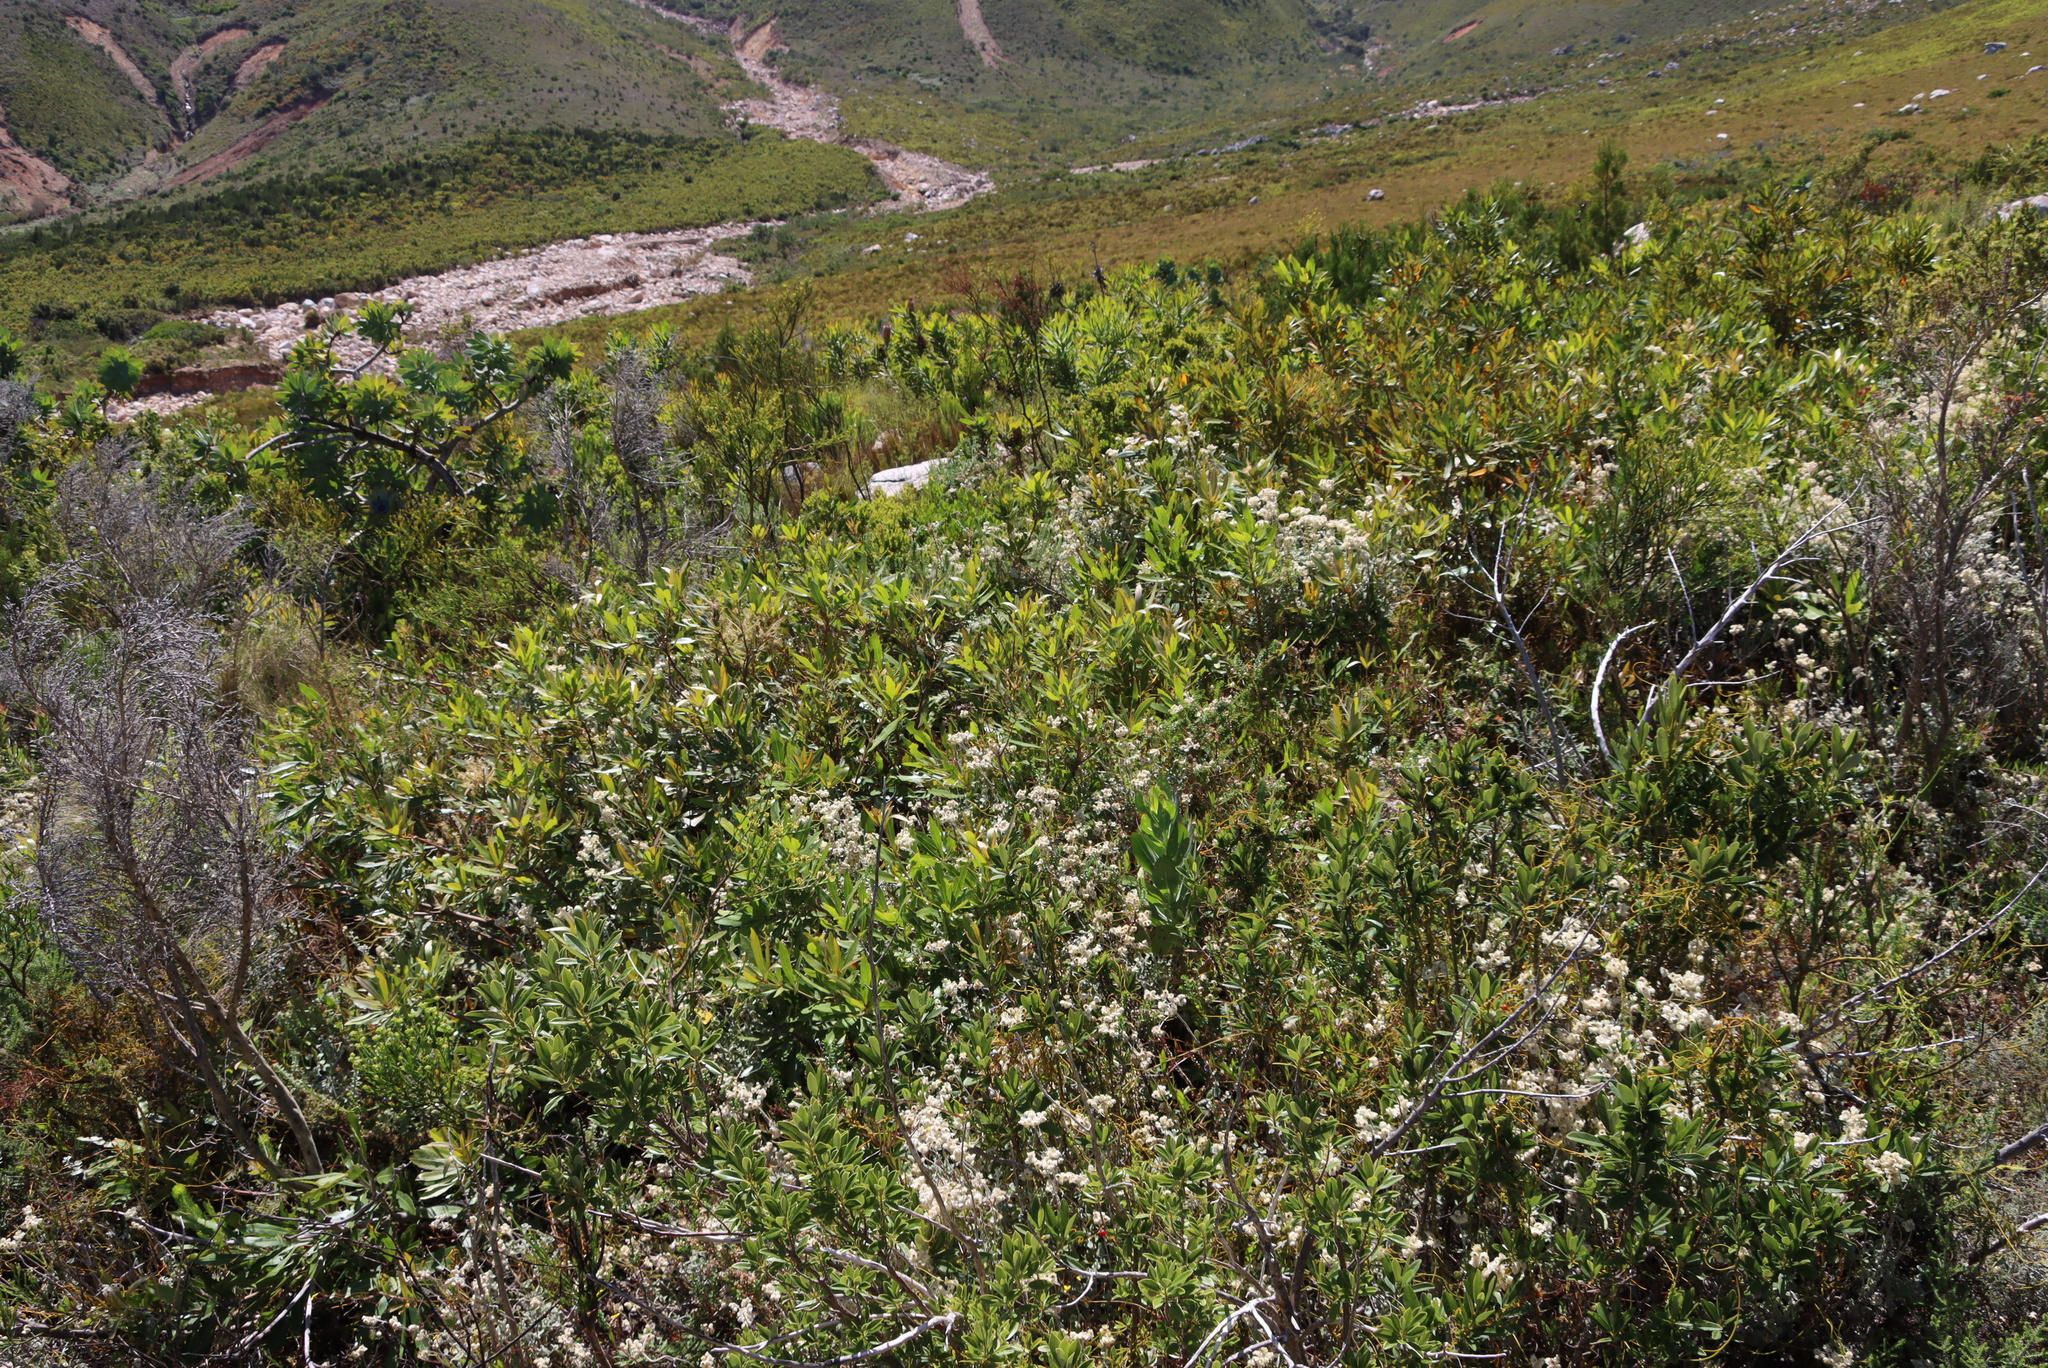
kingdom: Plantae
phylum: Tracheophyta
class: Magnoliopsida
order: Proteales
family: Proteaceae
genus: Brabejum
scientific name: Brabejum stellatifolium
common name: Wild almond
